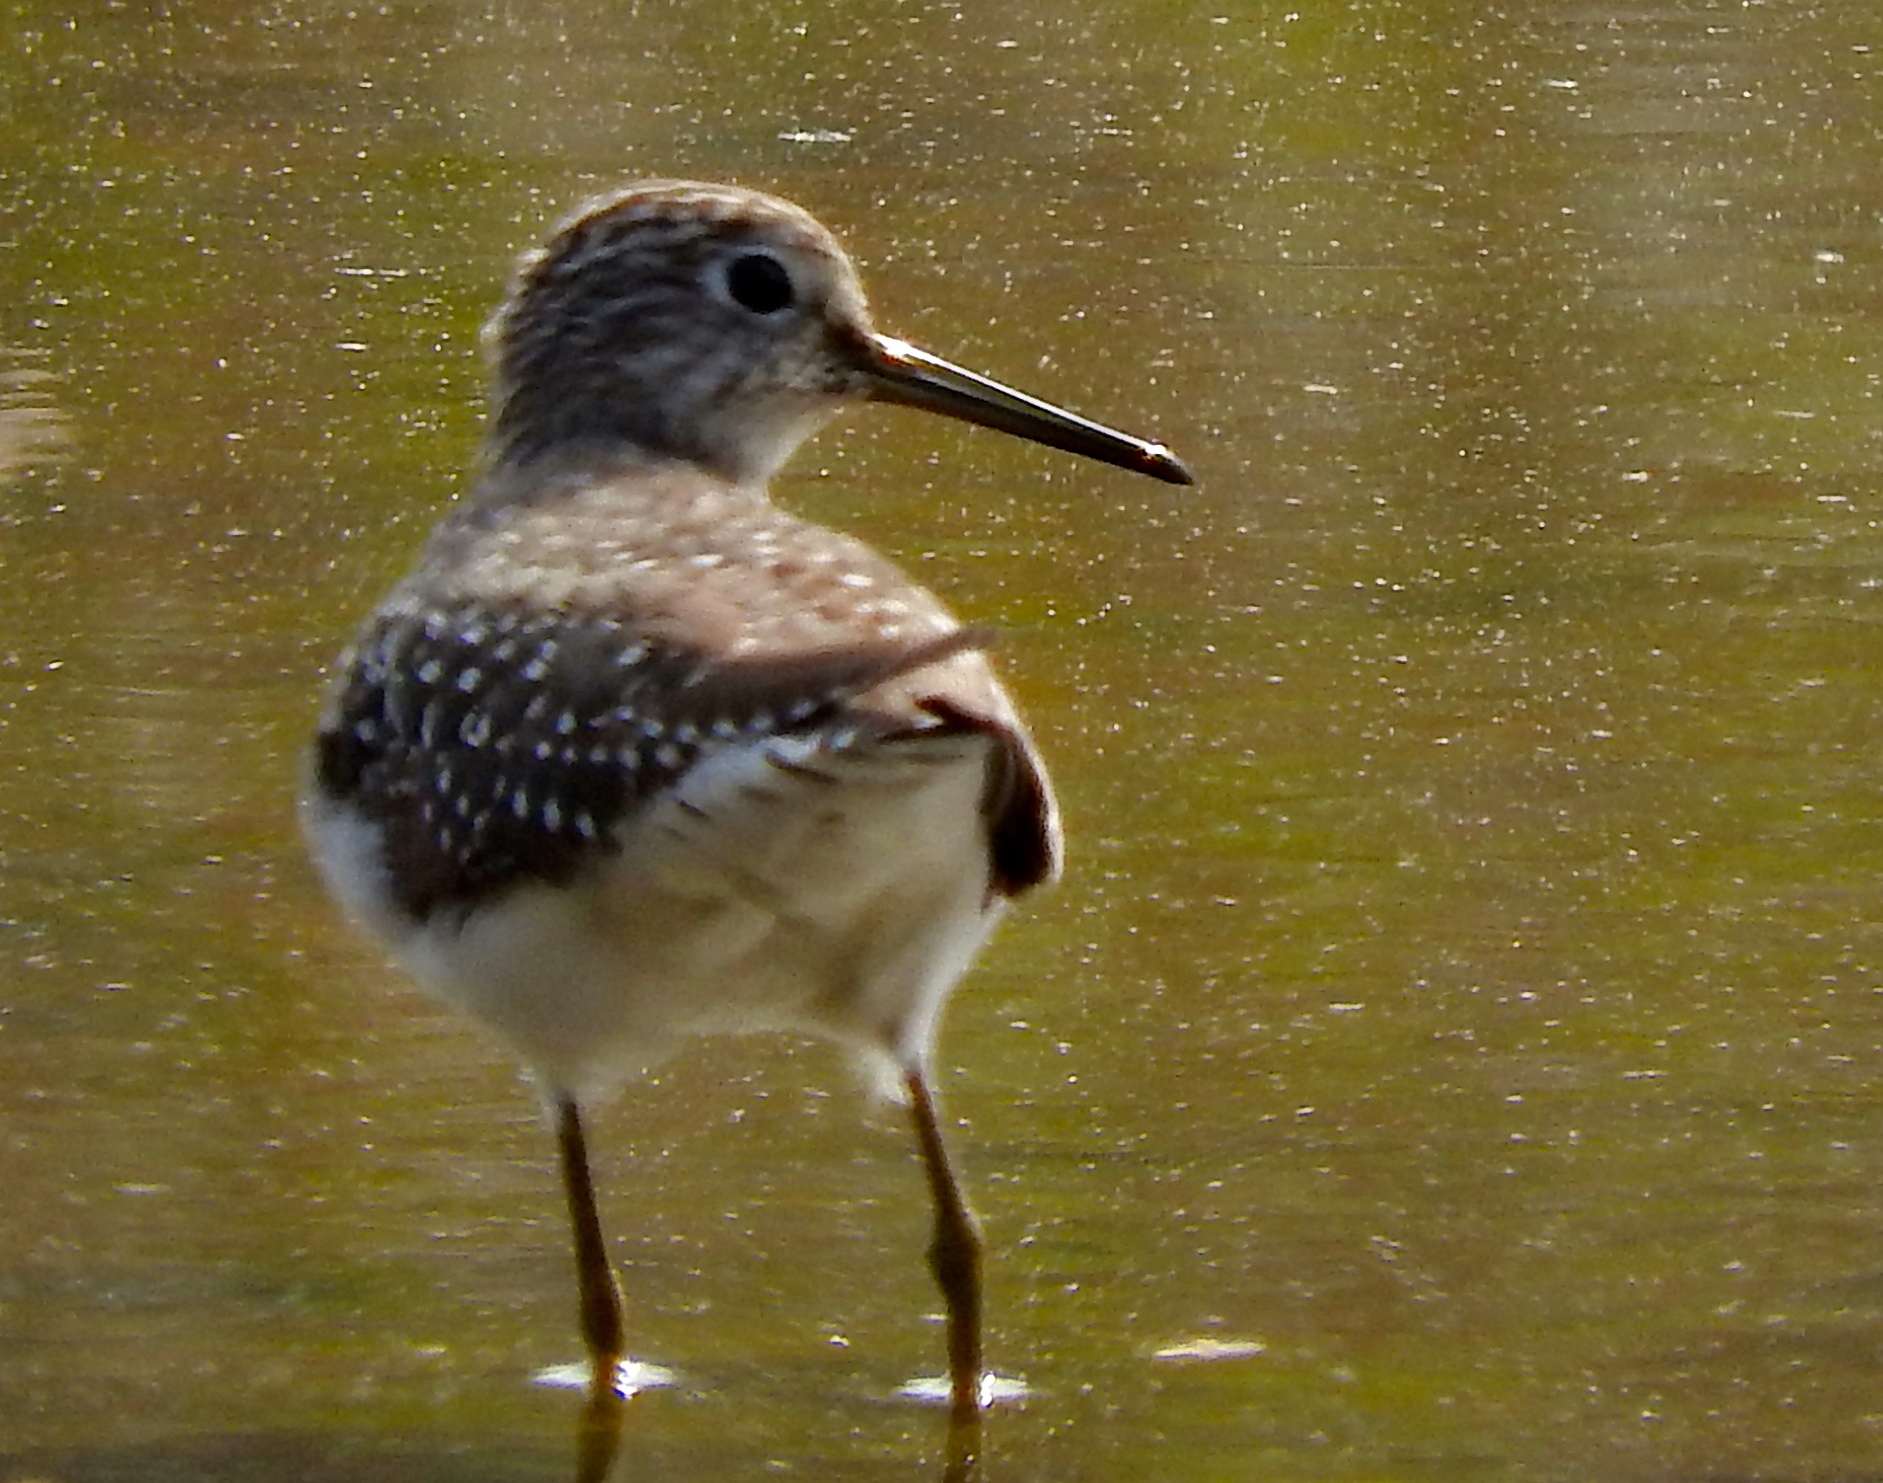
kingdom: Animalia
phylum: Chordata
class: Aves
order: Charadriiformes
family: Scolopacidae
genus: Tringa
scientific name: Tringa solitaria
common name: Solitary sandpiper
